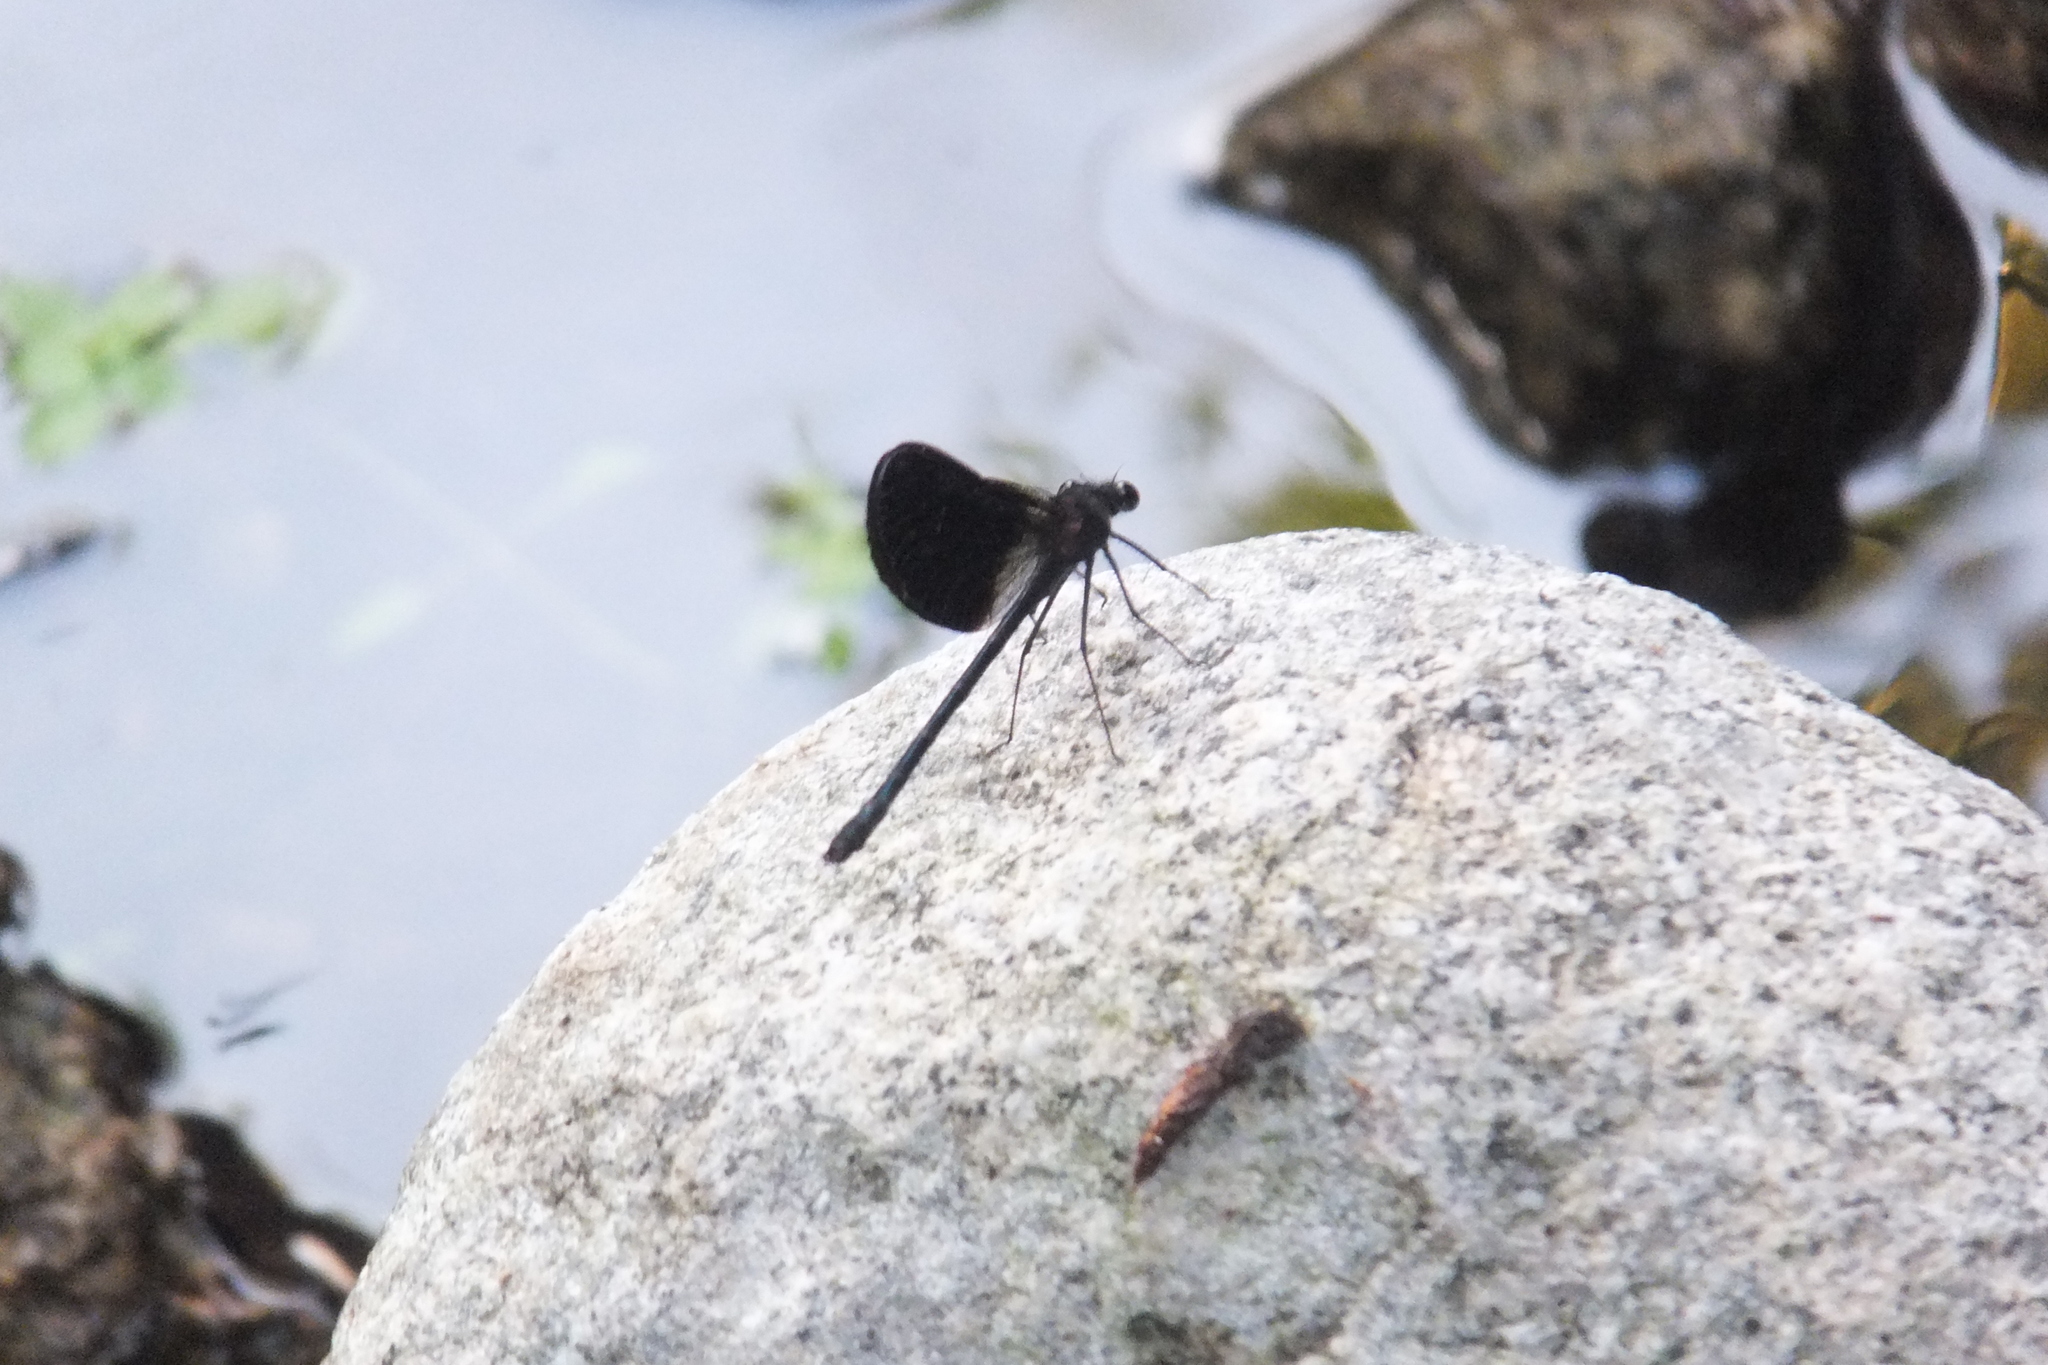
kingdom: Animalia
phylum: Arthropoda
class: Insecta
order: Odonata
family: Calopterygidae
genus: Calopteryx
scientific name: Calopteryx haemorrhoidalis
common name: Copper demoiselle
